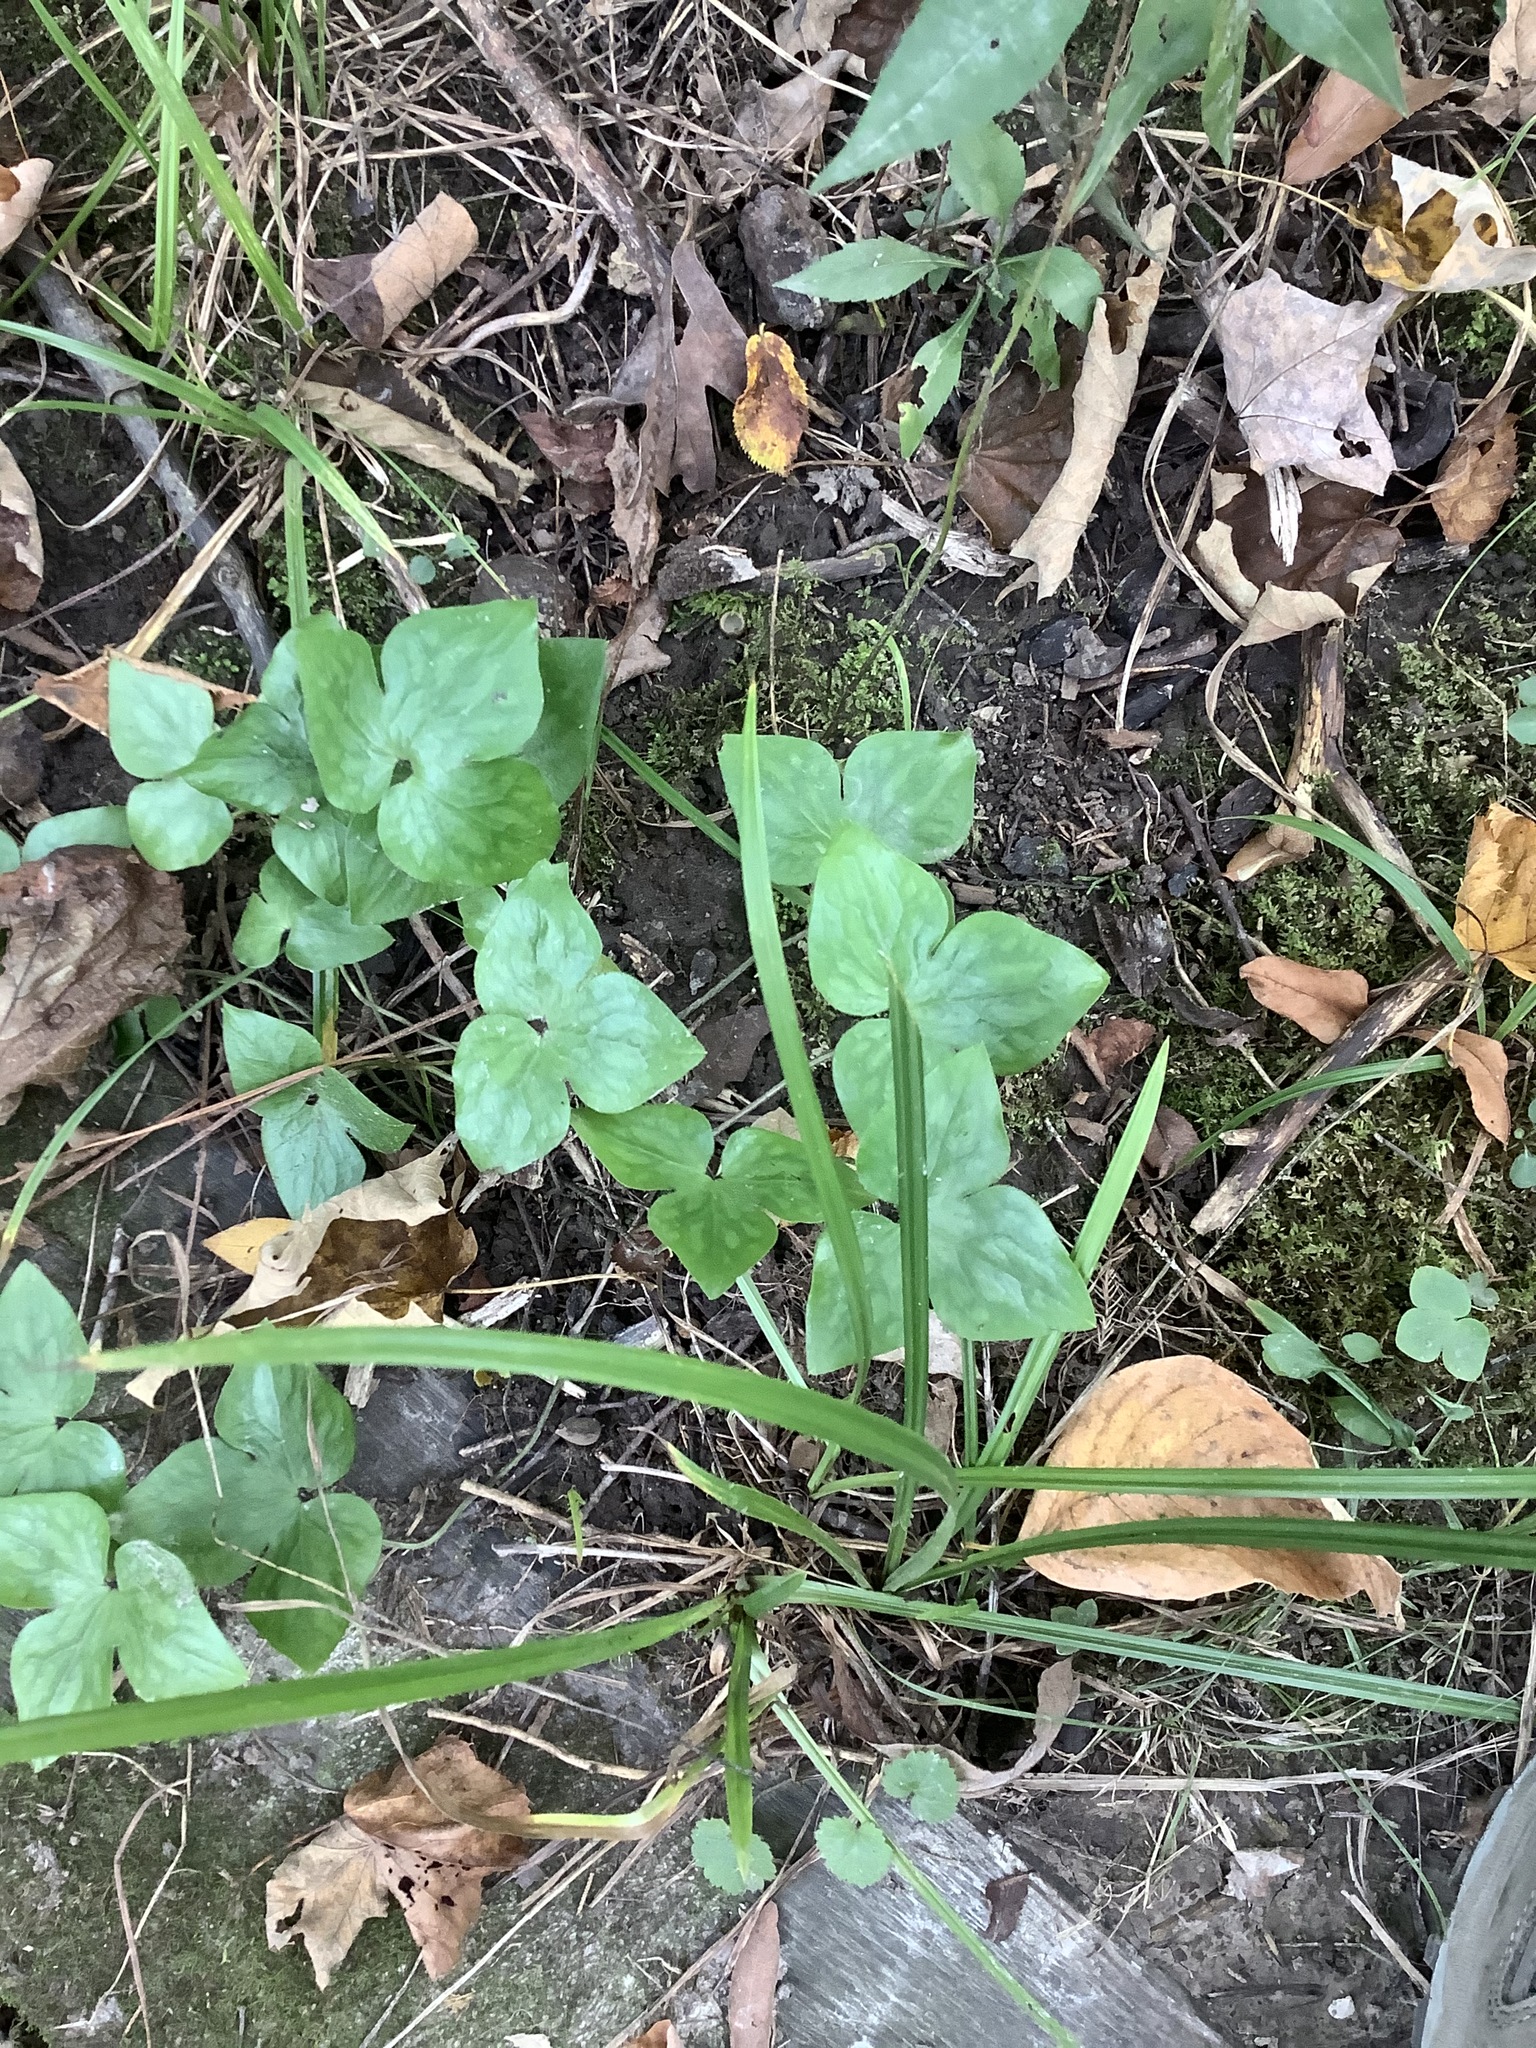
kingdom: Plantae
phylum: Tracheophyta
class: Magnoliopsida
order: Ranunculales
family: Ranunculaceae
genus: Hepatica
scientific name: Hepatica acutiloba
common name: Sharp-lobed hepatica
